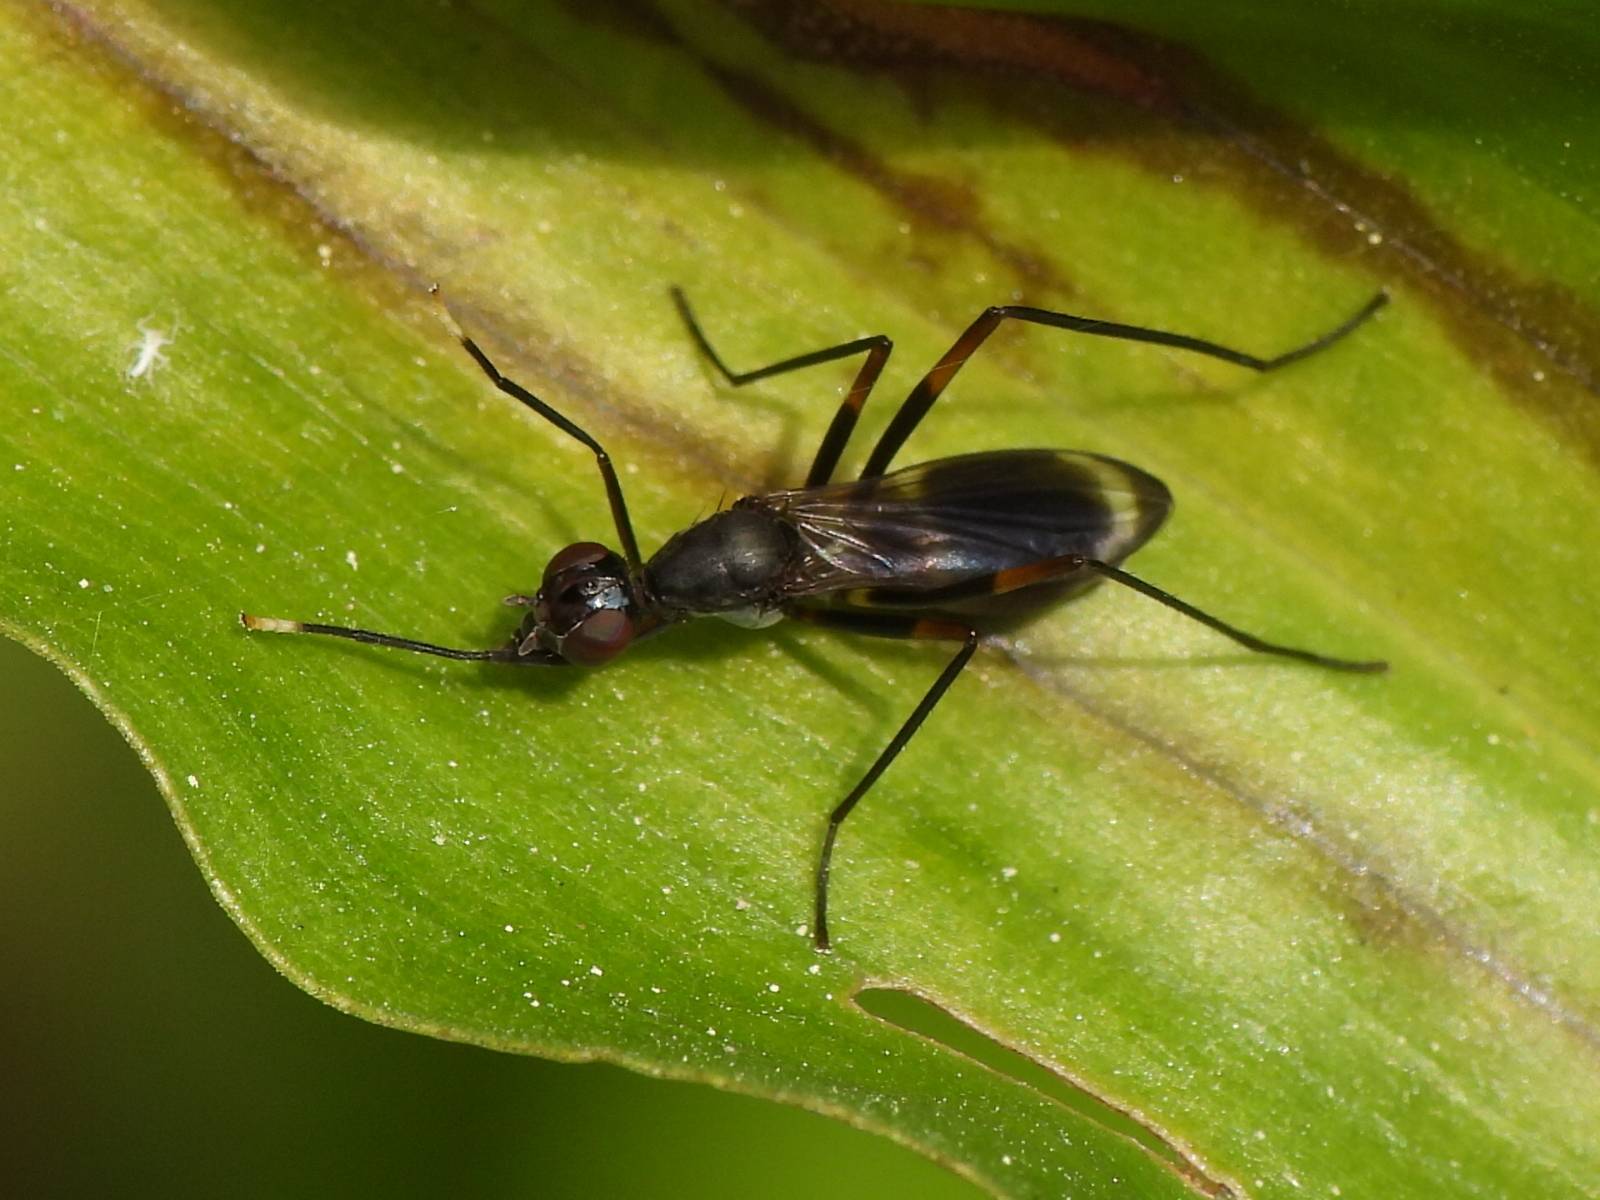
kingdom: Animalia
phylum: Arthropoda
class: Insecta
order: Diptera
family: Micropezidae
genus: Taeniaptera
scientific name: Taeniaptera trivittata
